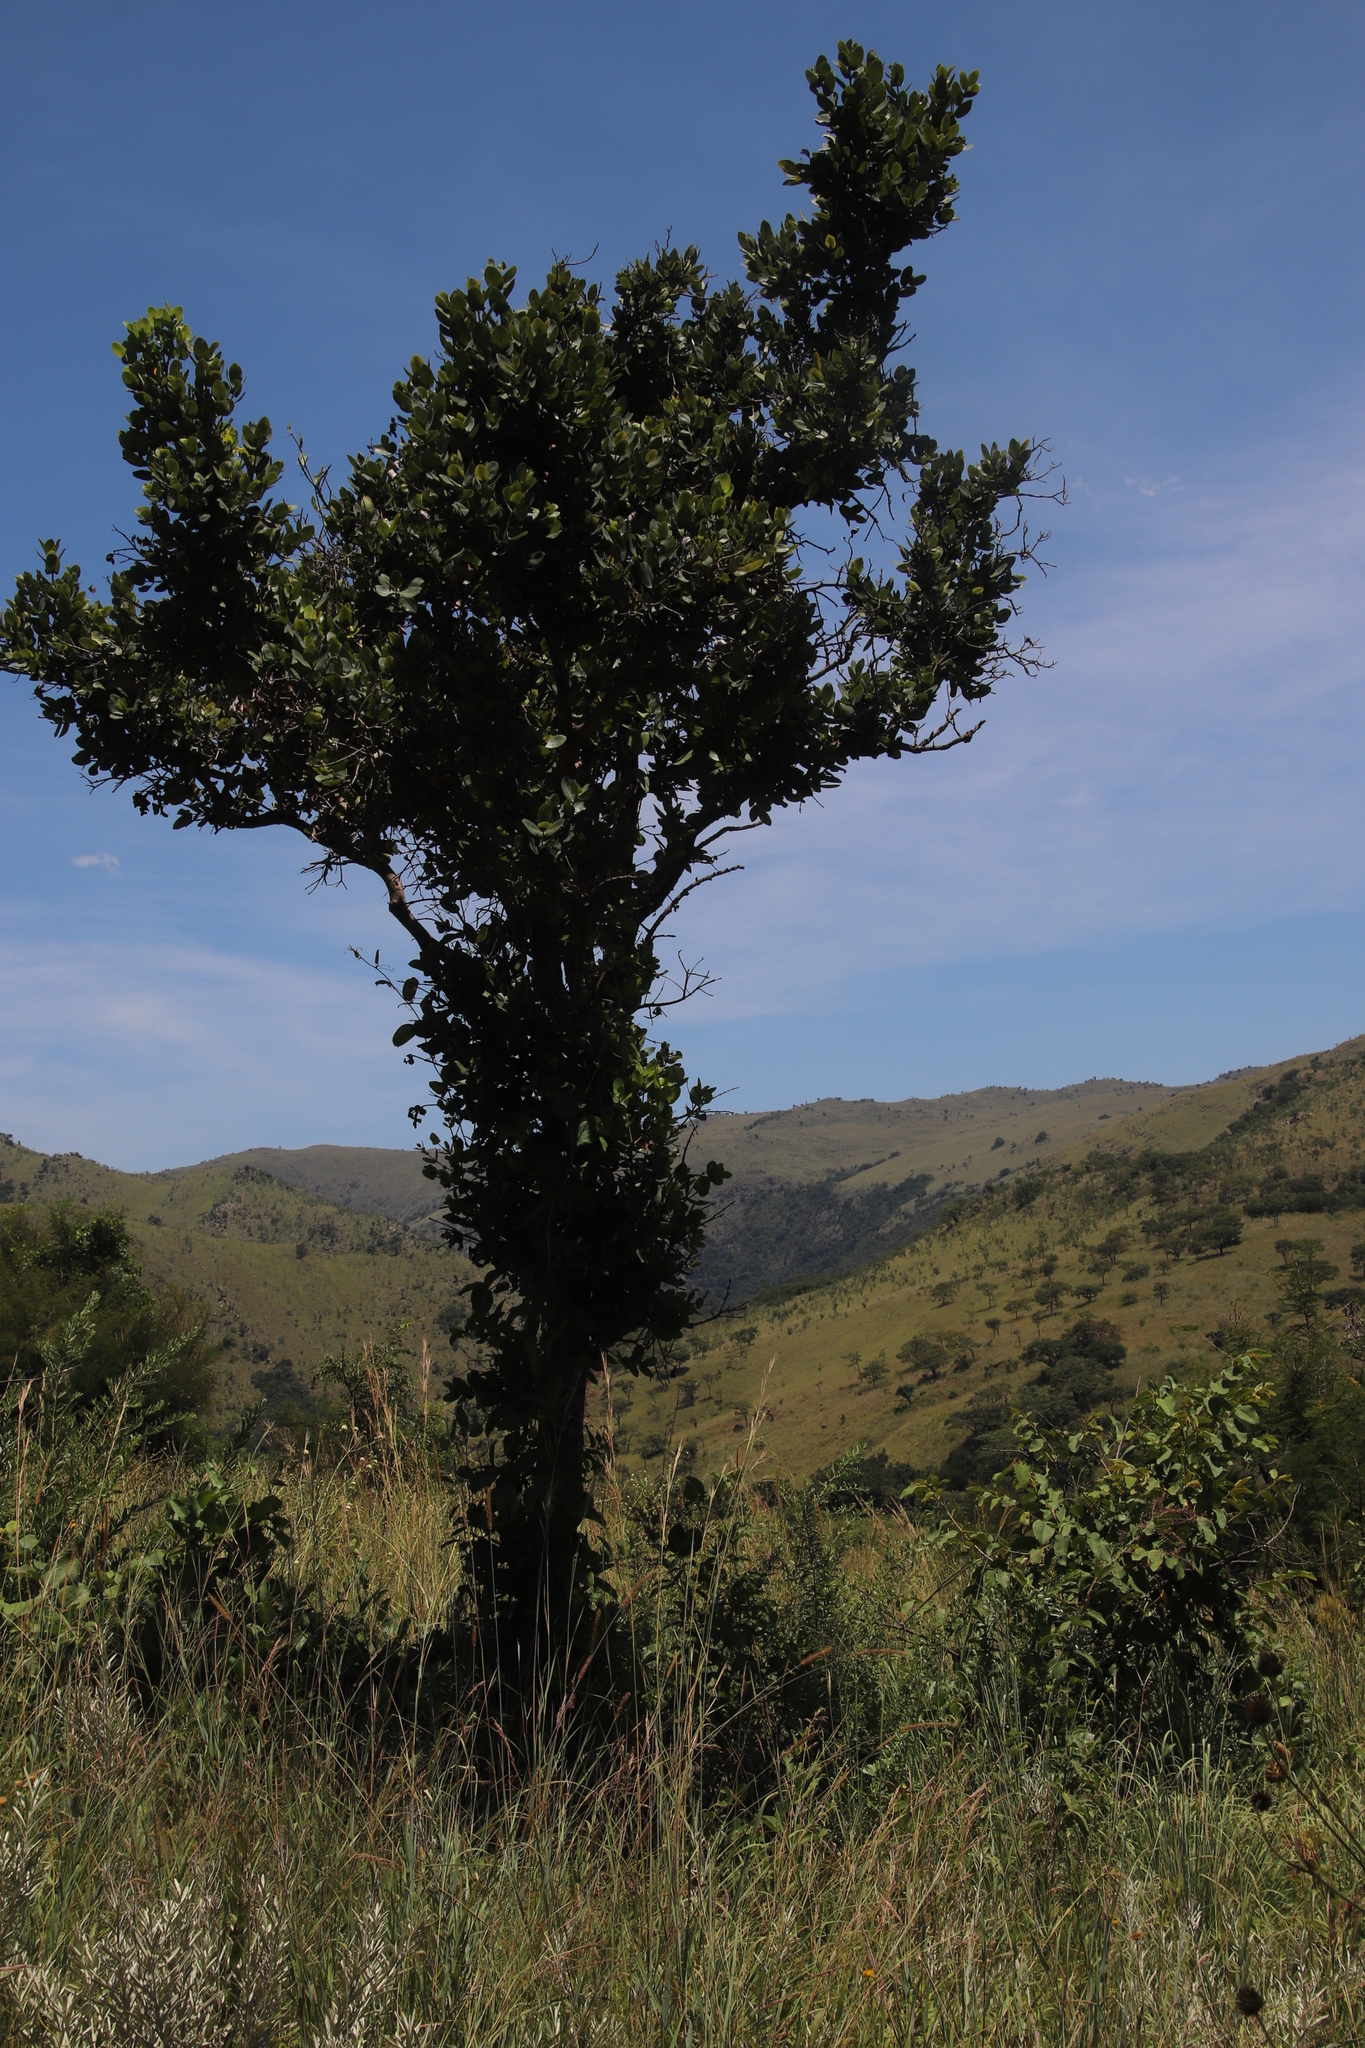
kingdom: Plantae
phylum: Tracheophyta
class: Magnoliopsida
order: Myrtales
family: Myrtaceae
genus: Syzygium
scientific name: Syzygium cordatum
